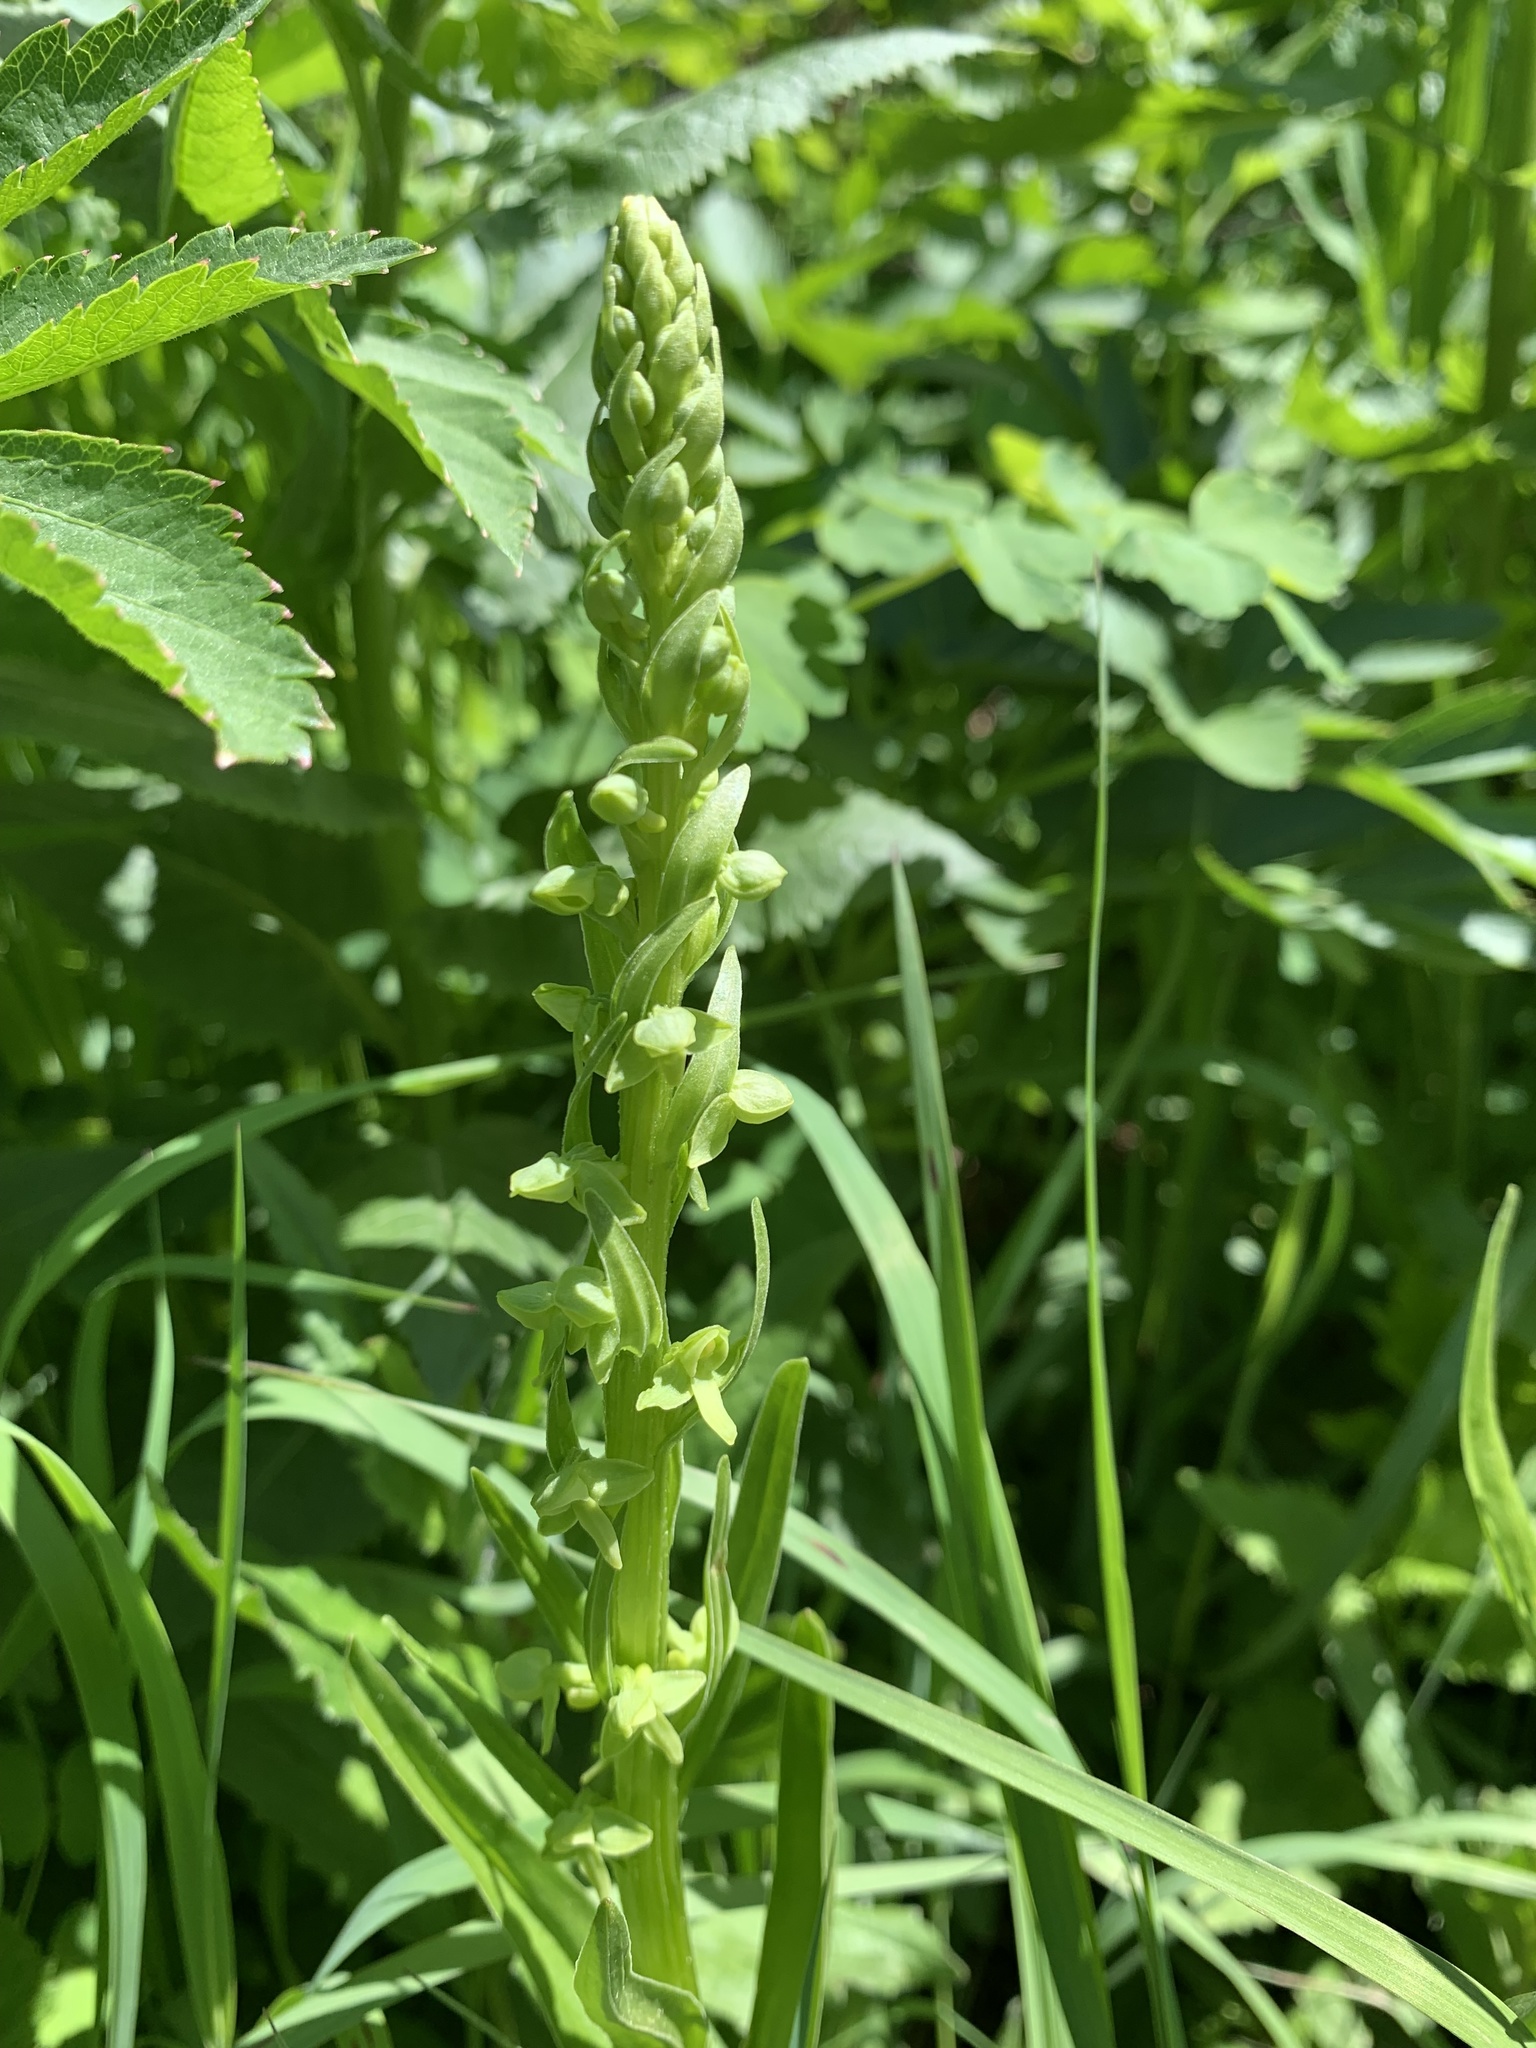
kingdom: Plantae
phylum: Tracheophyta
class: Liliopsida
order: Asparagales
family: Orchidaceae
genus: Platanthera
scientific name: Platanthera stricta
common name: Slender bog orchid
